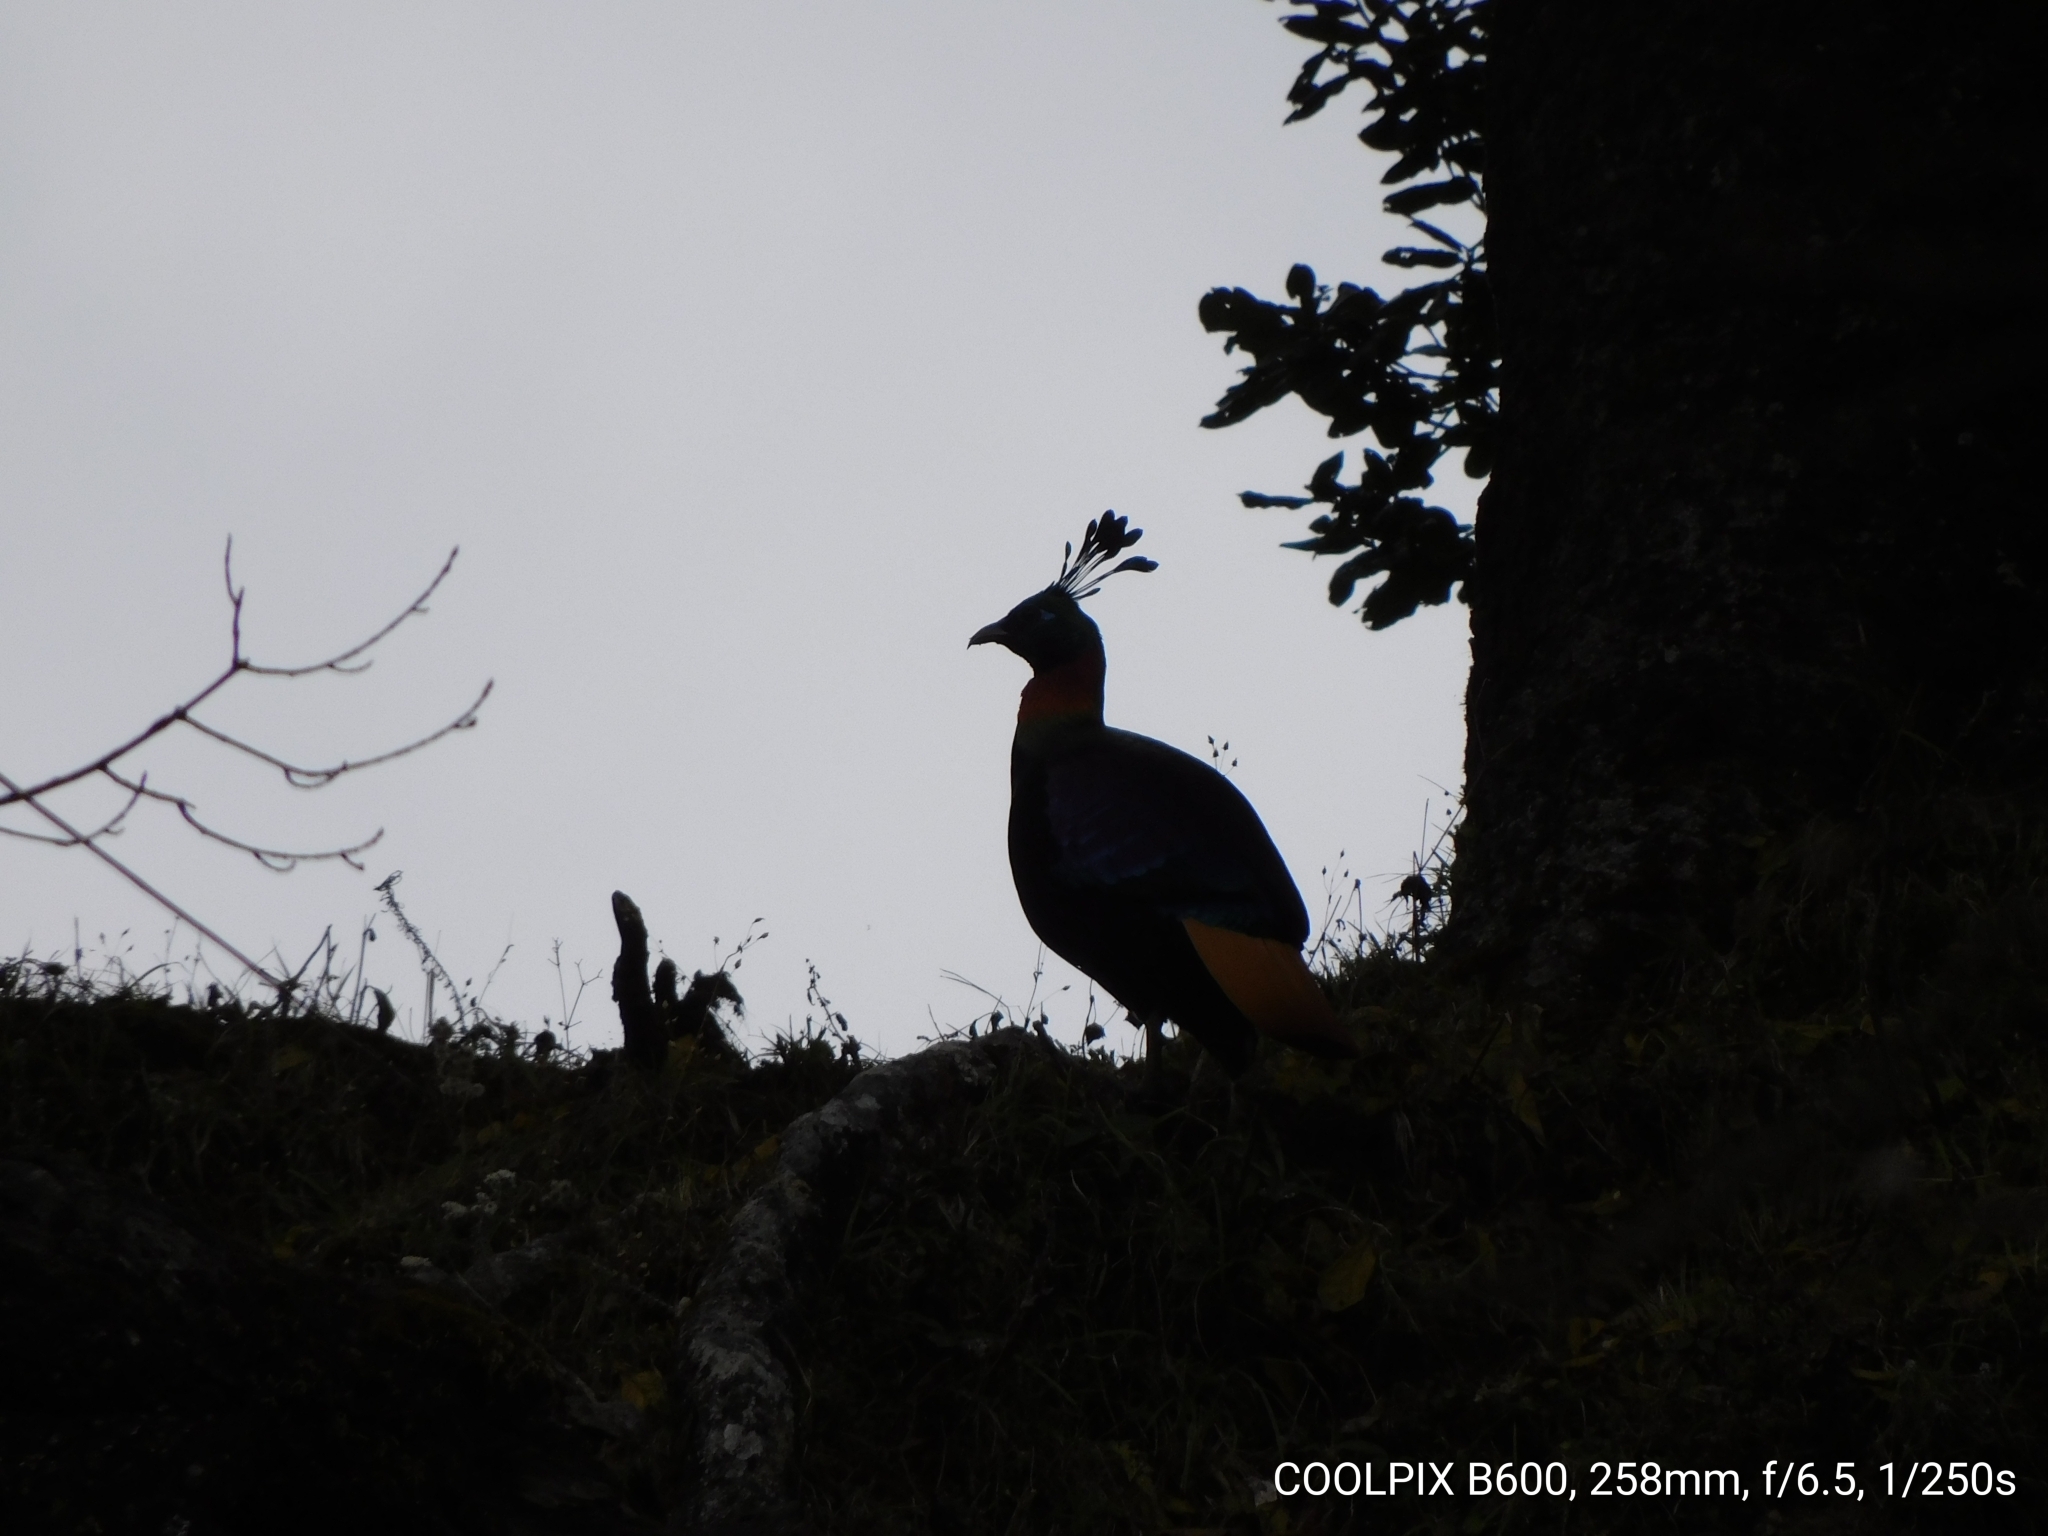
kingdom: Animalia
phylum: Chordata
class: Aves
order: Galliformes
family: Phasianidae
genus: Lophophorus
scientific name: Lophophorus impejanus
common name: Himalayan monal
